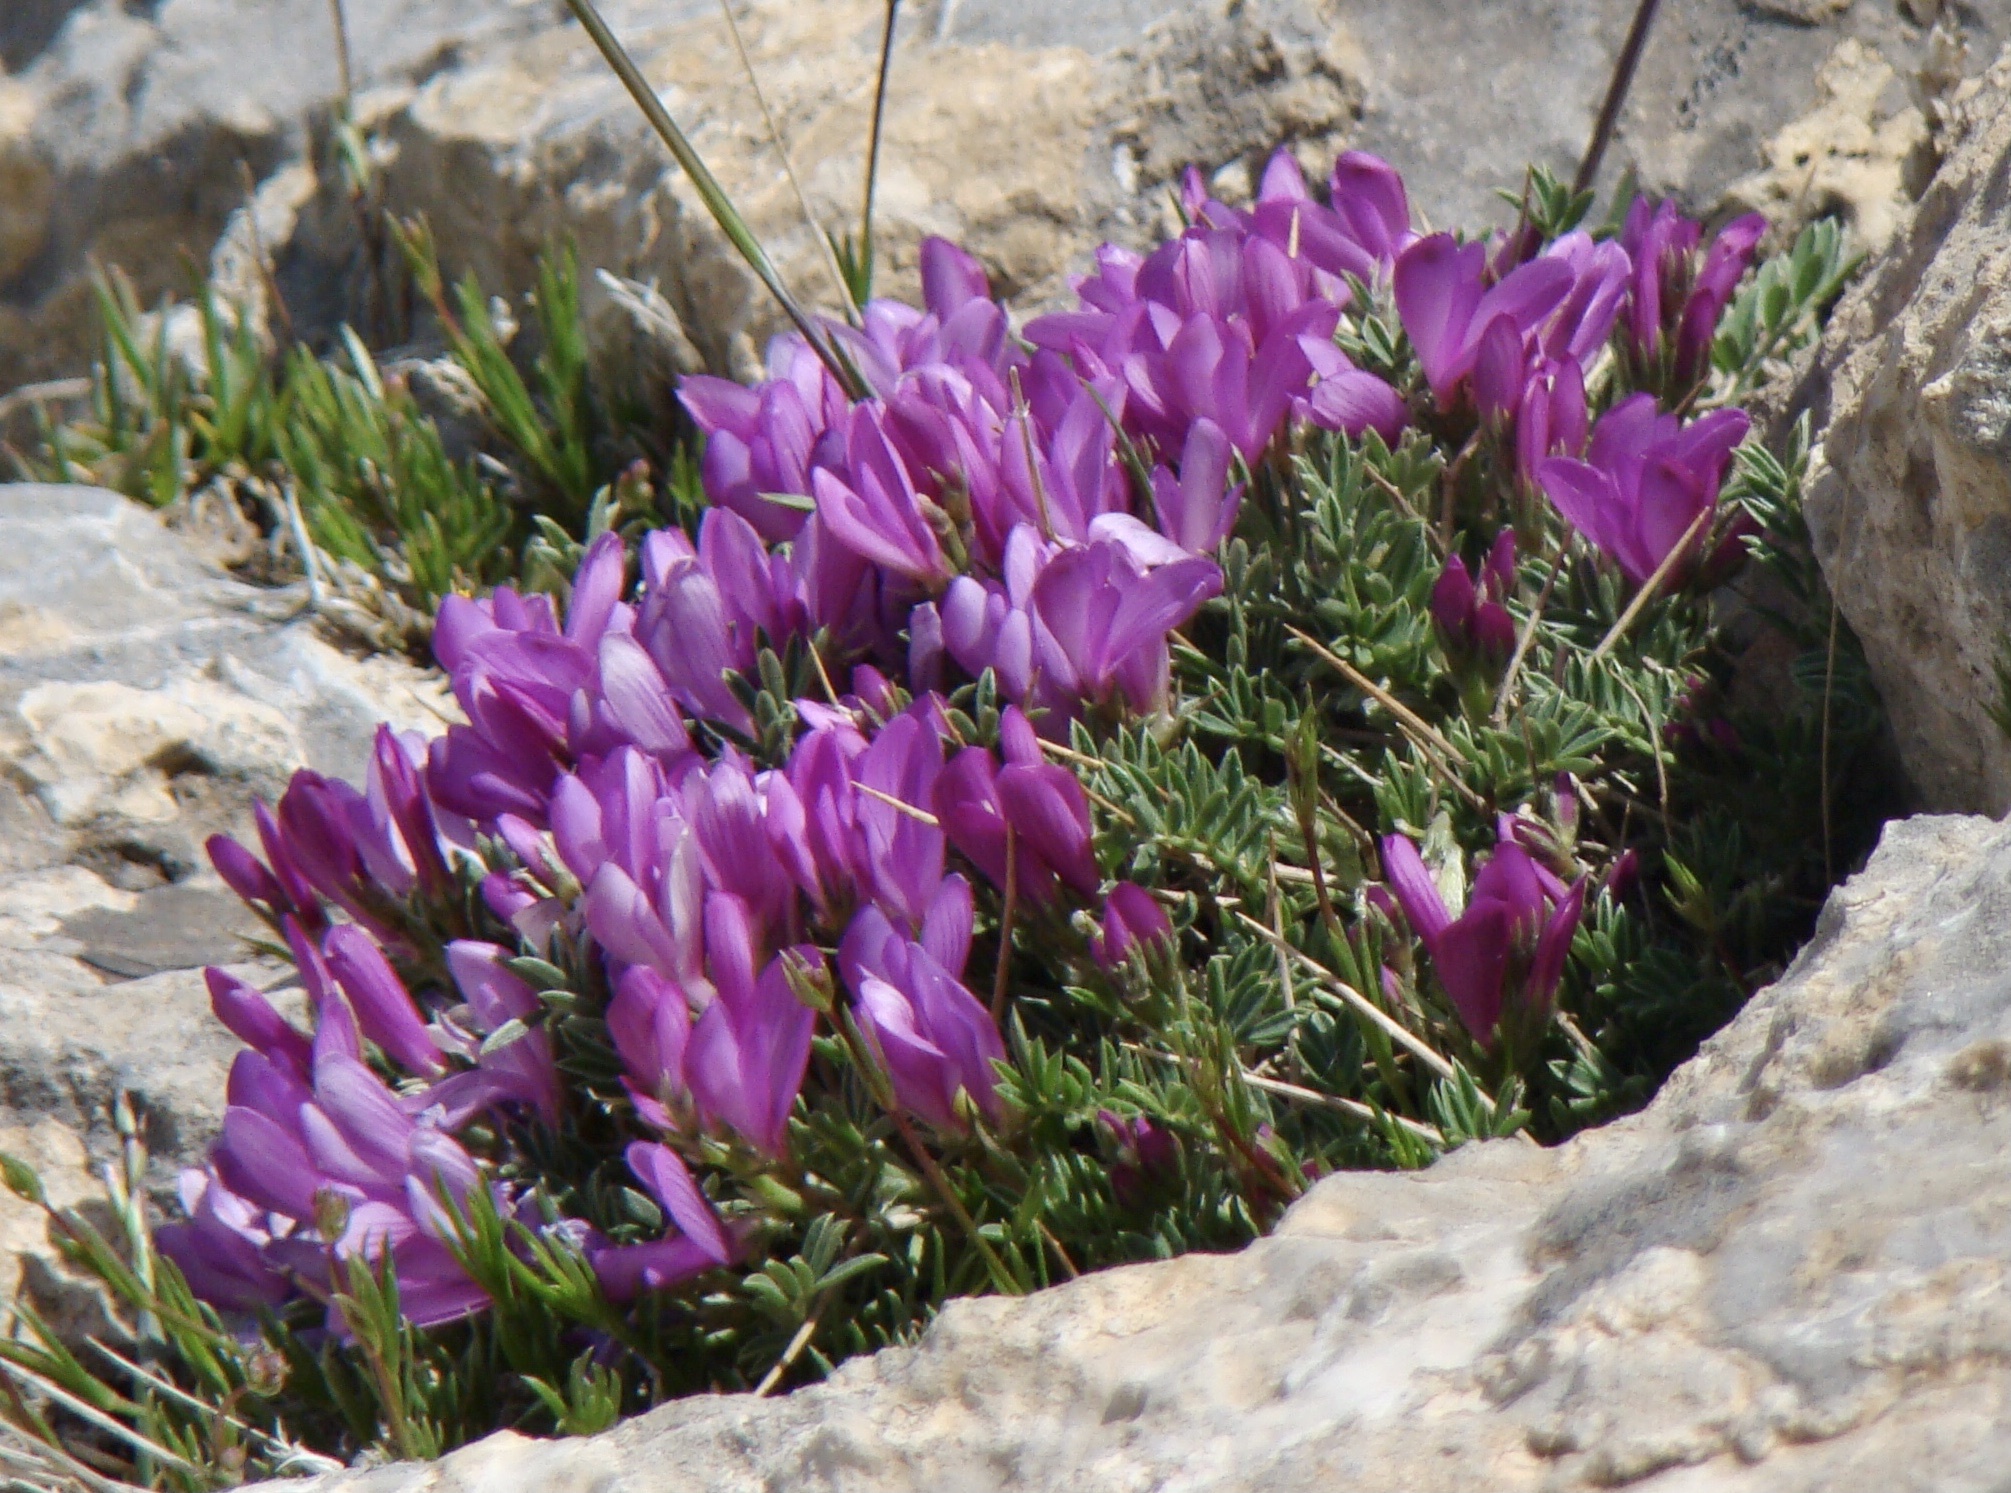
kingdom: Plantae
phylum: Tracheophyta
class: Magnoliopsida
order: Fabales
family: Fabaceae
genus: Onobrychis
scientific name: Onobrychis cornuta
